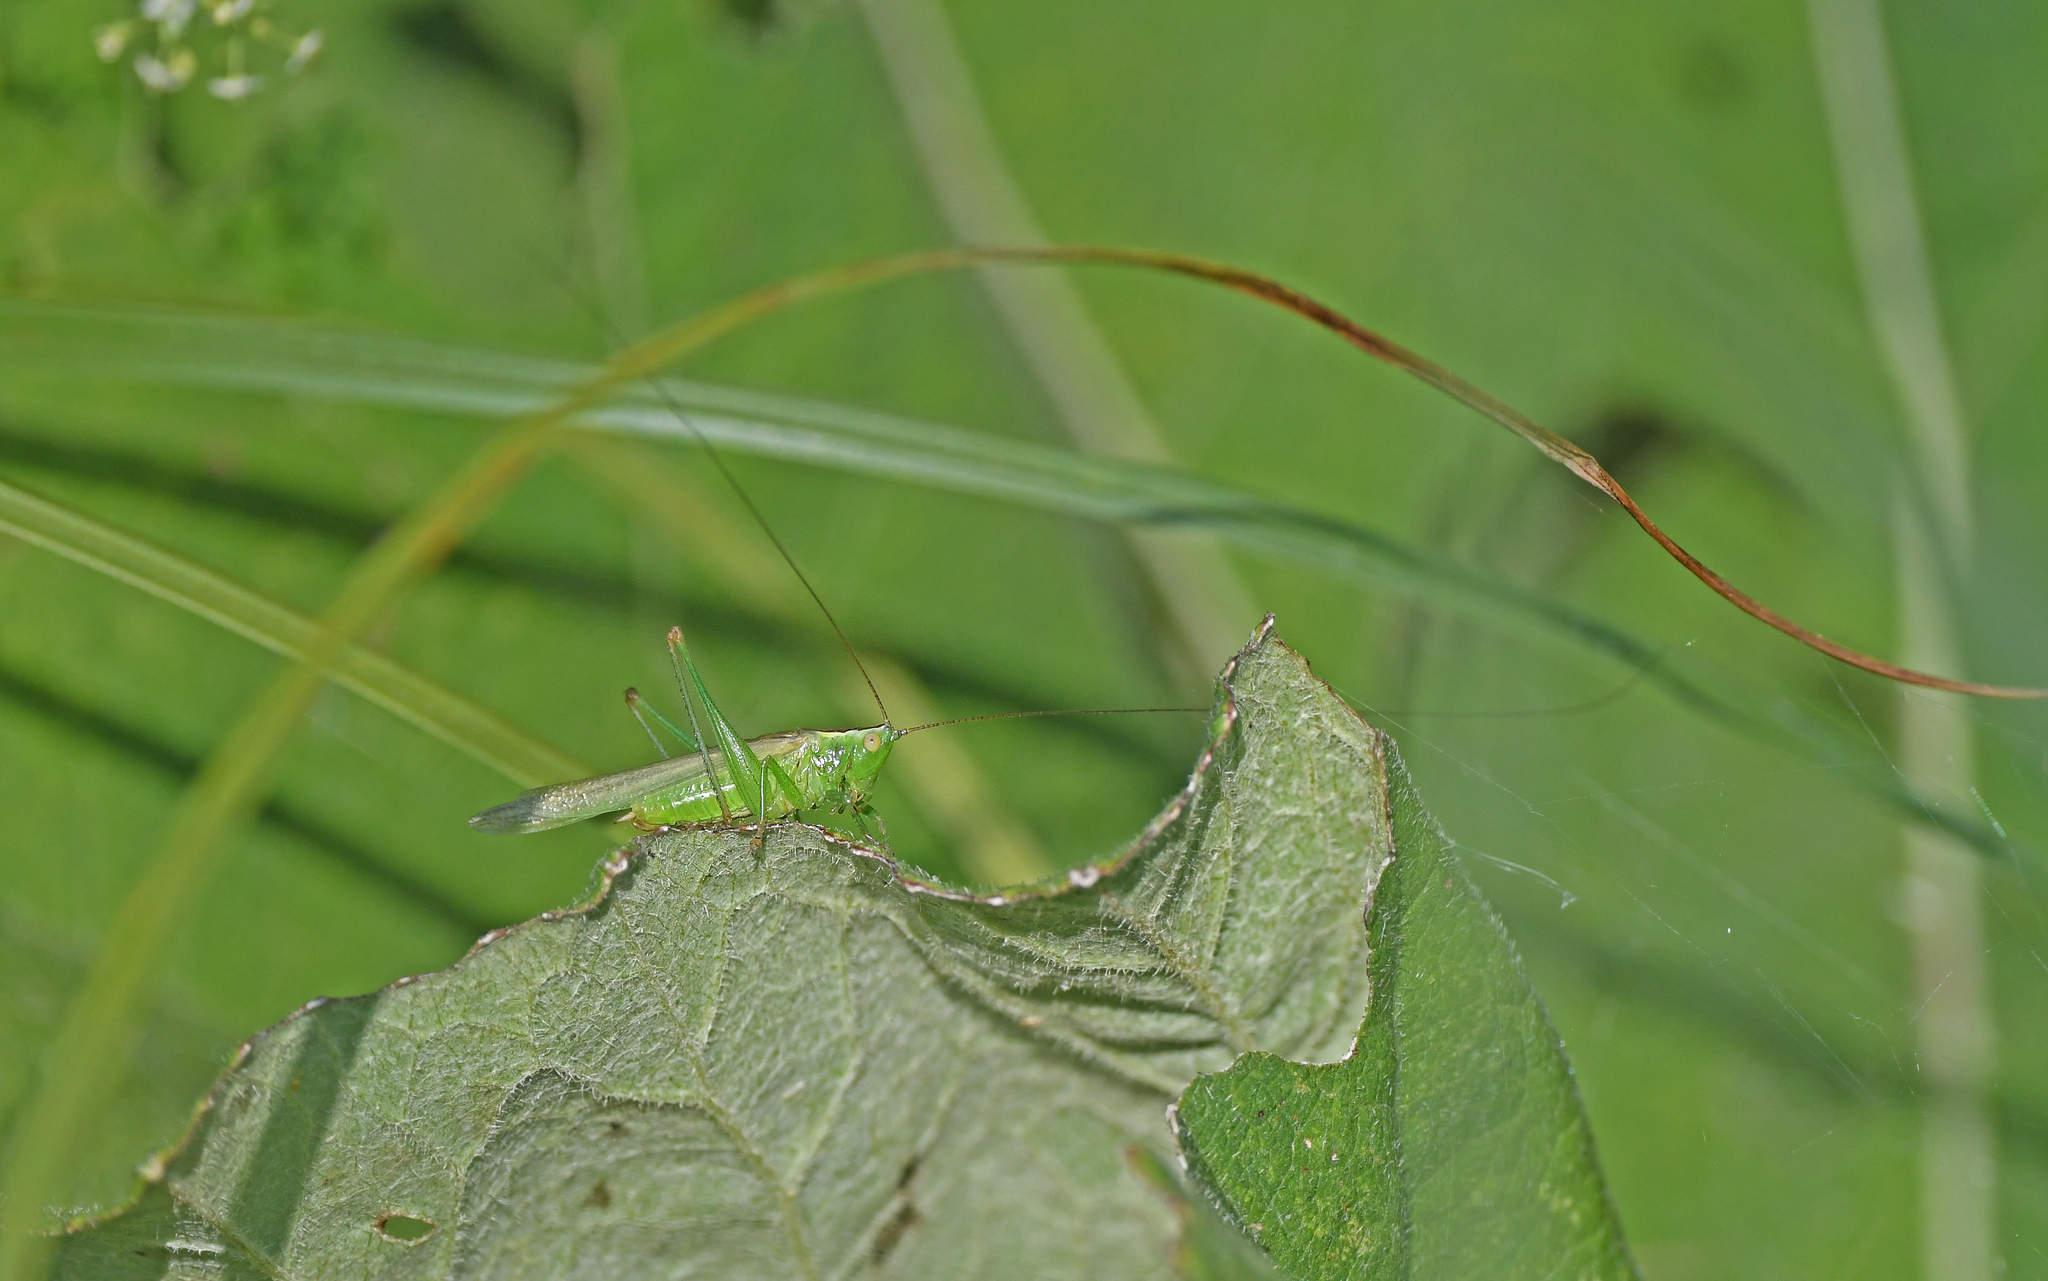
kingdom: Animalia
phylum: Arthropoda
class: Insecta
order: Orthoptera
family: Tettigoniidae
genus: Conocephalus
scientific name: Conocephalus fuscus
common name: Long-winged conehead
